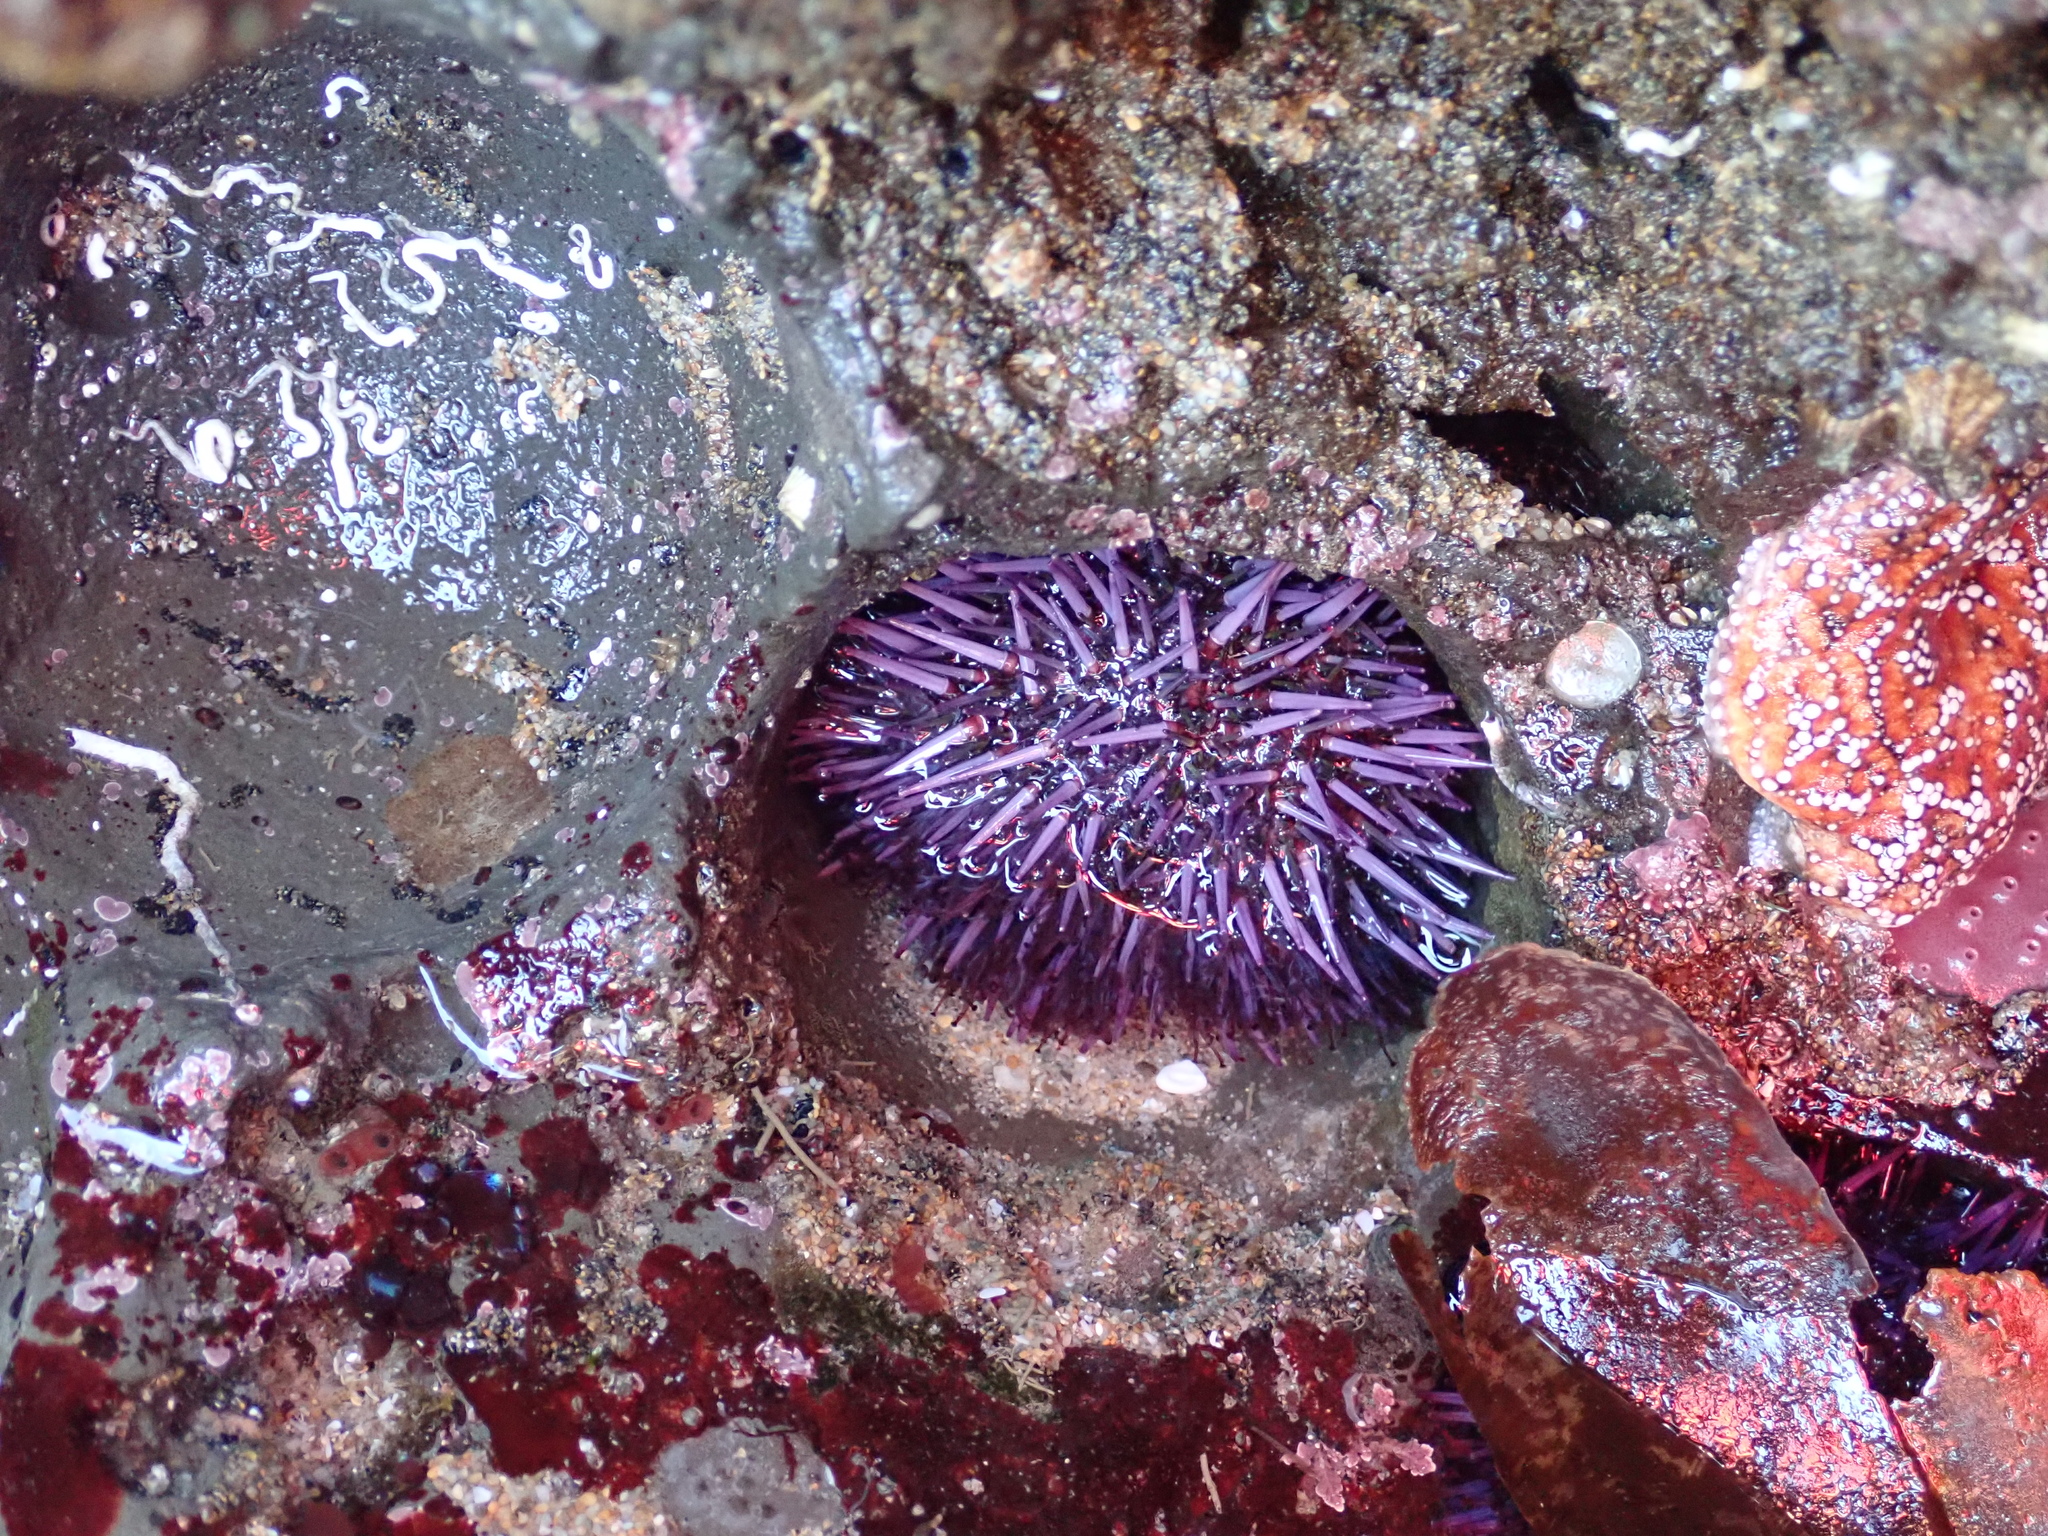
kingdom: Animalia
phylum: Echinodermata
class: Echinoidea
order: Camarodonta
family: Strongylocentrotidae
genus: Strongylocentrotus
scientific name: Strongylocentrotus purpuratus
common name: Purple sea urchin
